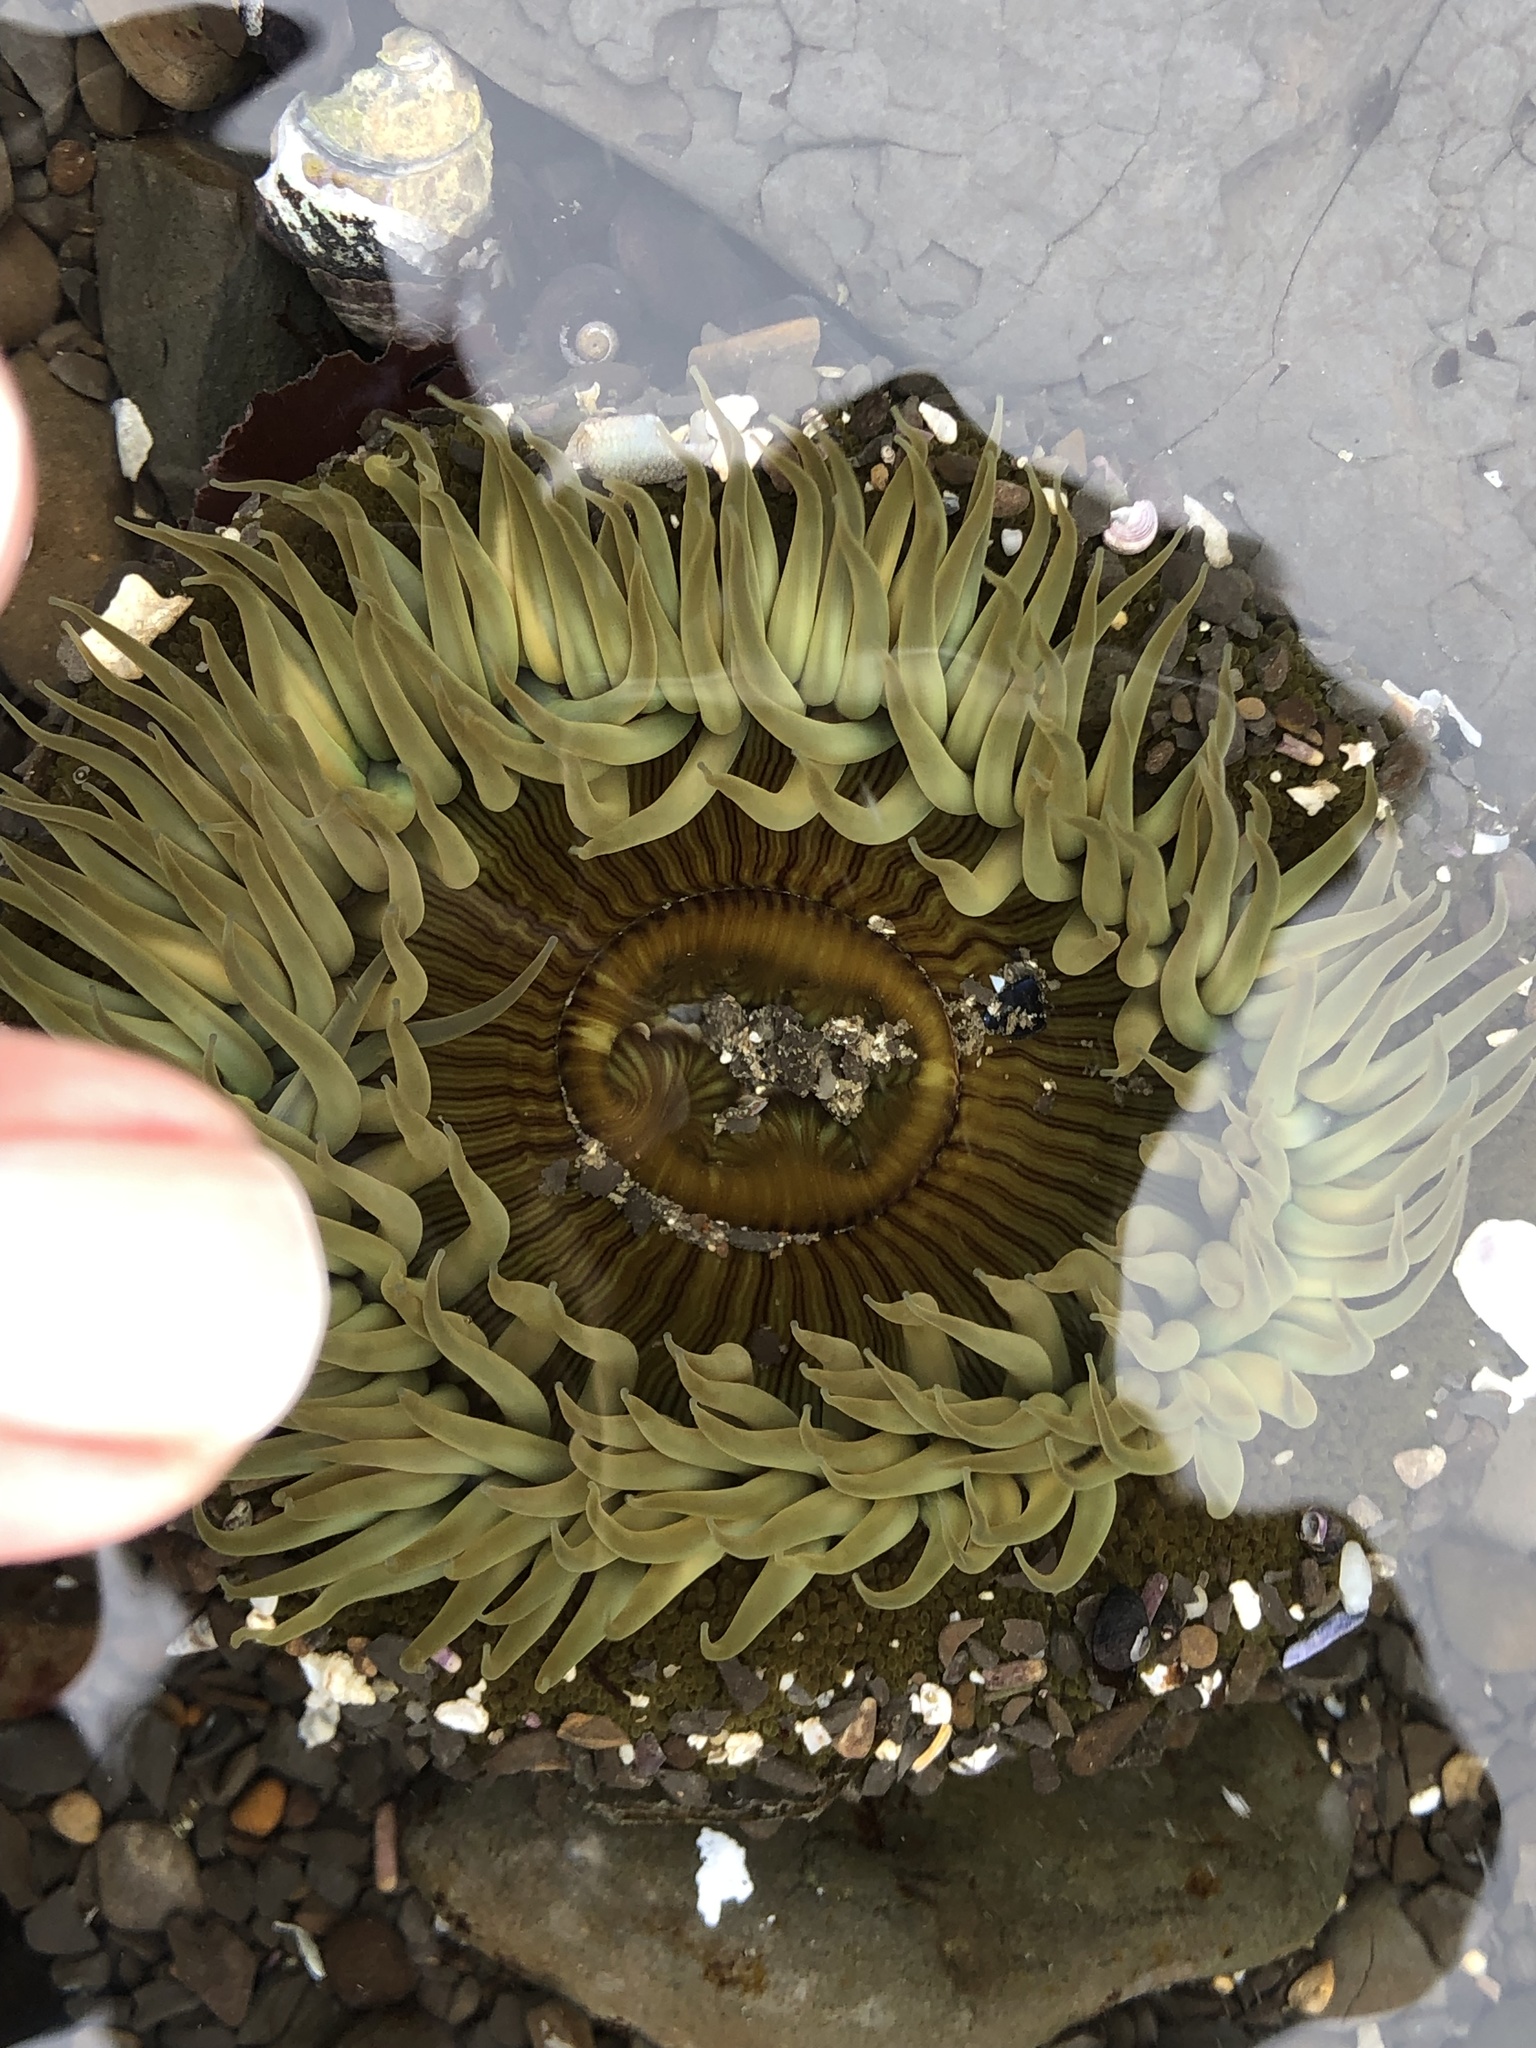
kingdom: Animalia
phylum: Cnidaria
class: Anthozoa
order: Actiniaria
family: Actiniidae
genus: Anthopleura
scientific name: Anthopleura sola
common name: Sun anemone
